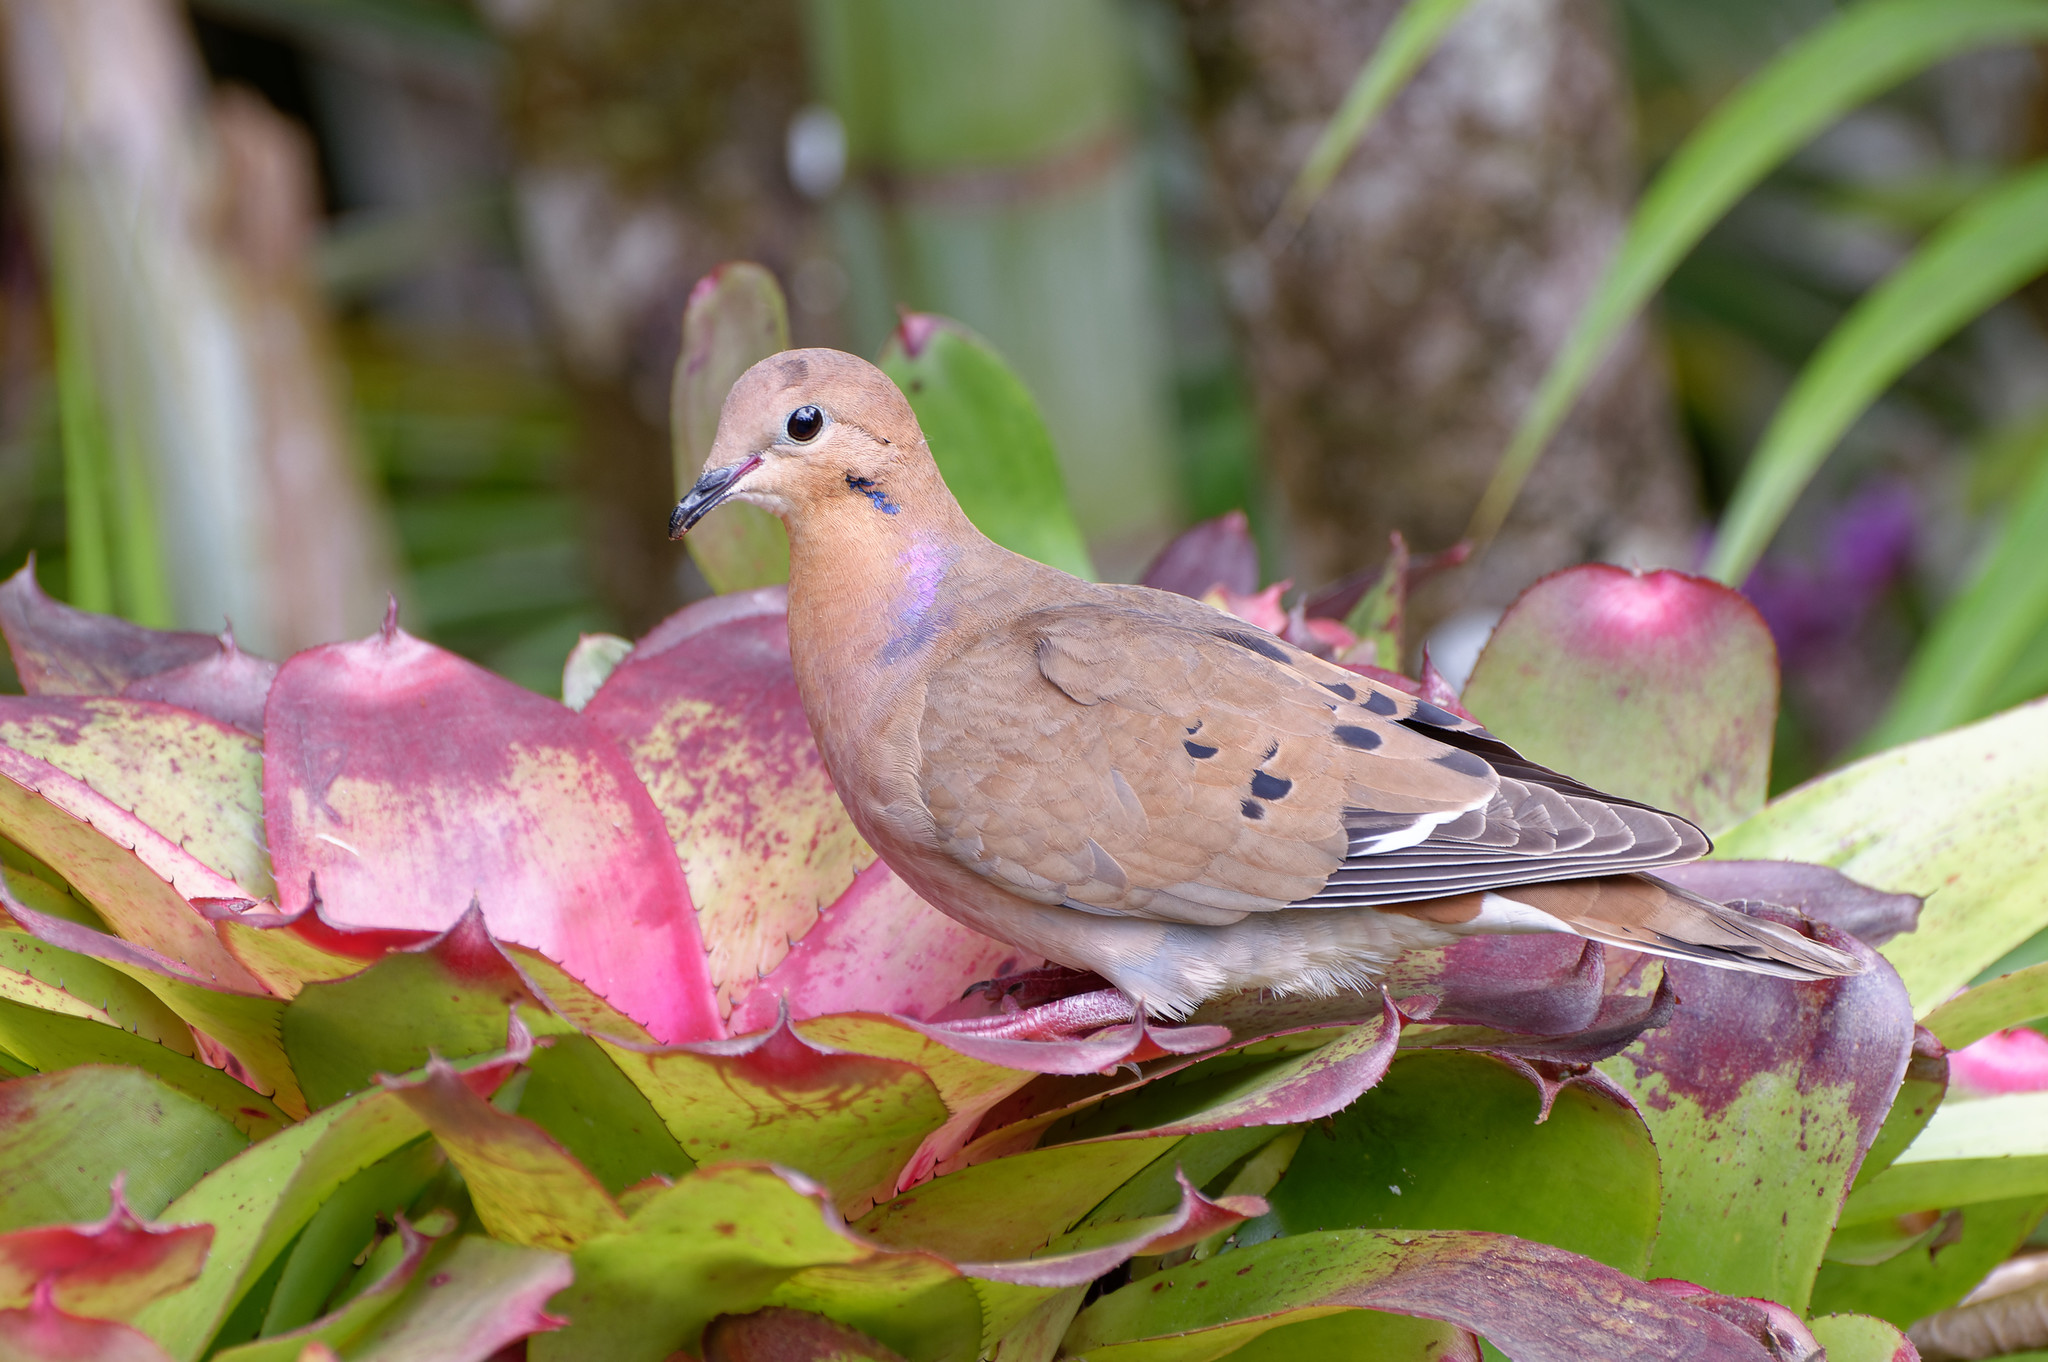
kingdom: Animalia
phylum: Chordata
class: Aves
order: Columbiformes
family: Columbidae
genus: Zenaida
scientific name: Zenaida aurita
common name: Zenaida dove
